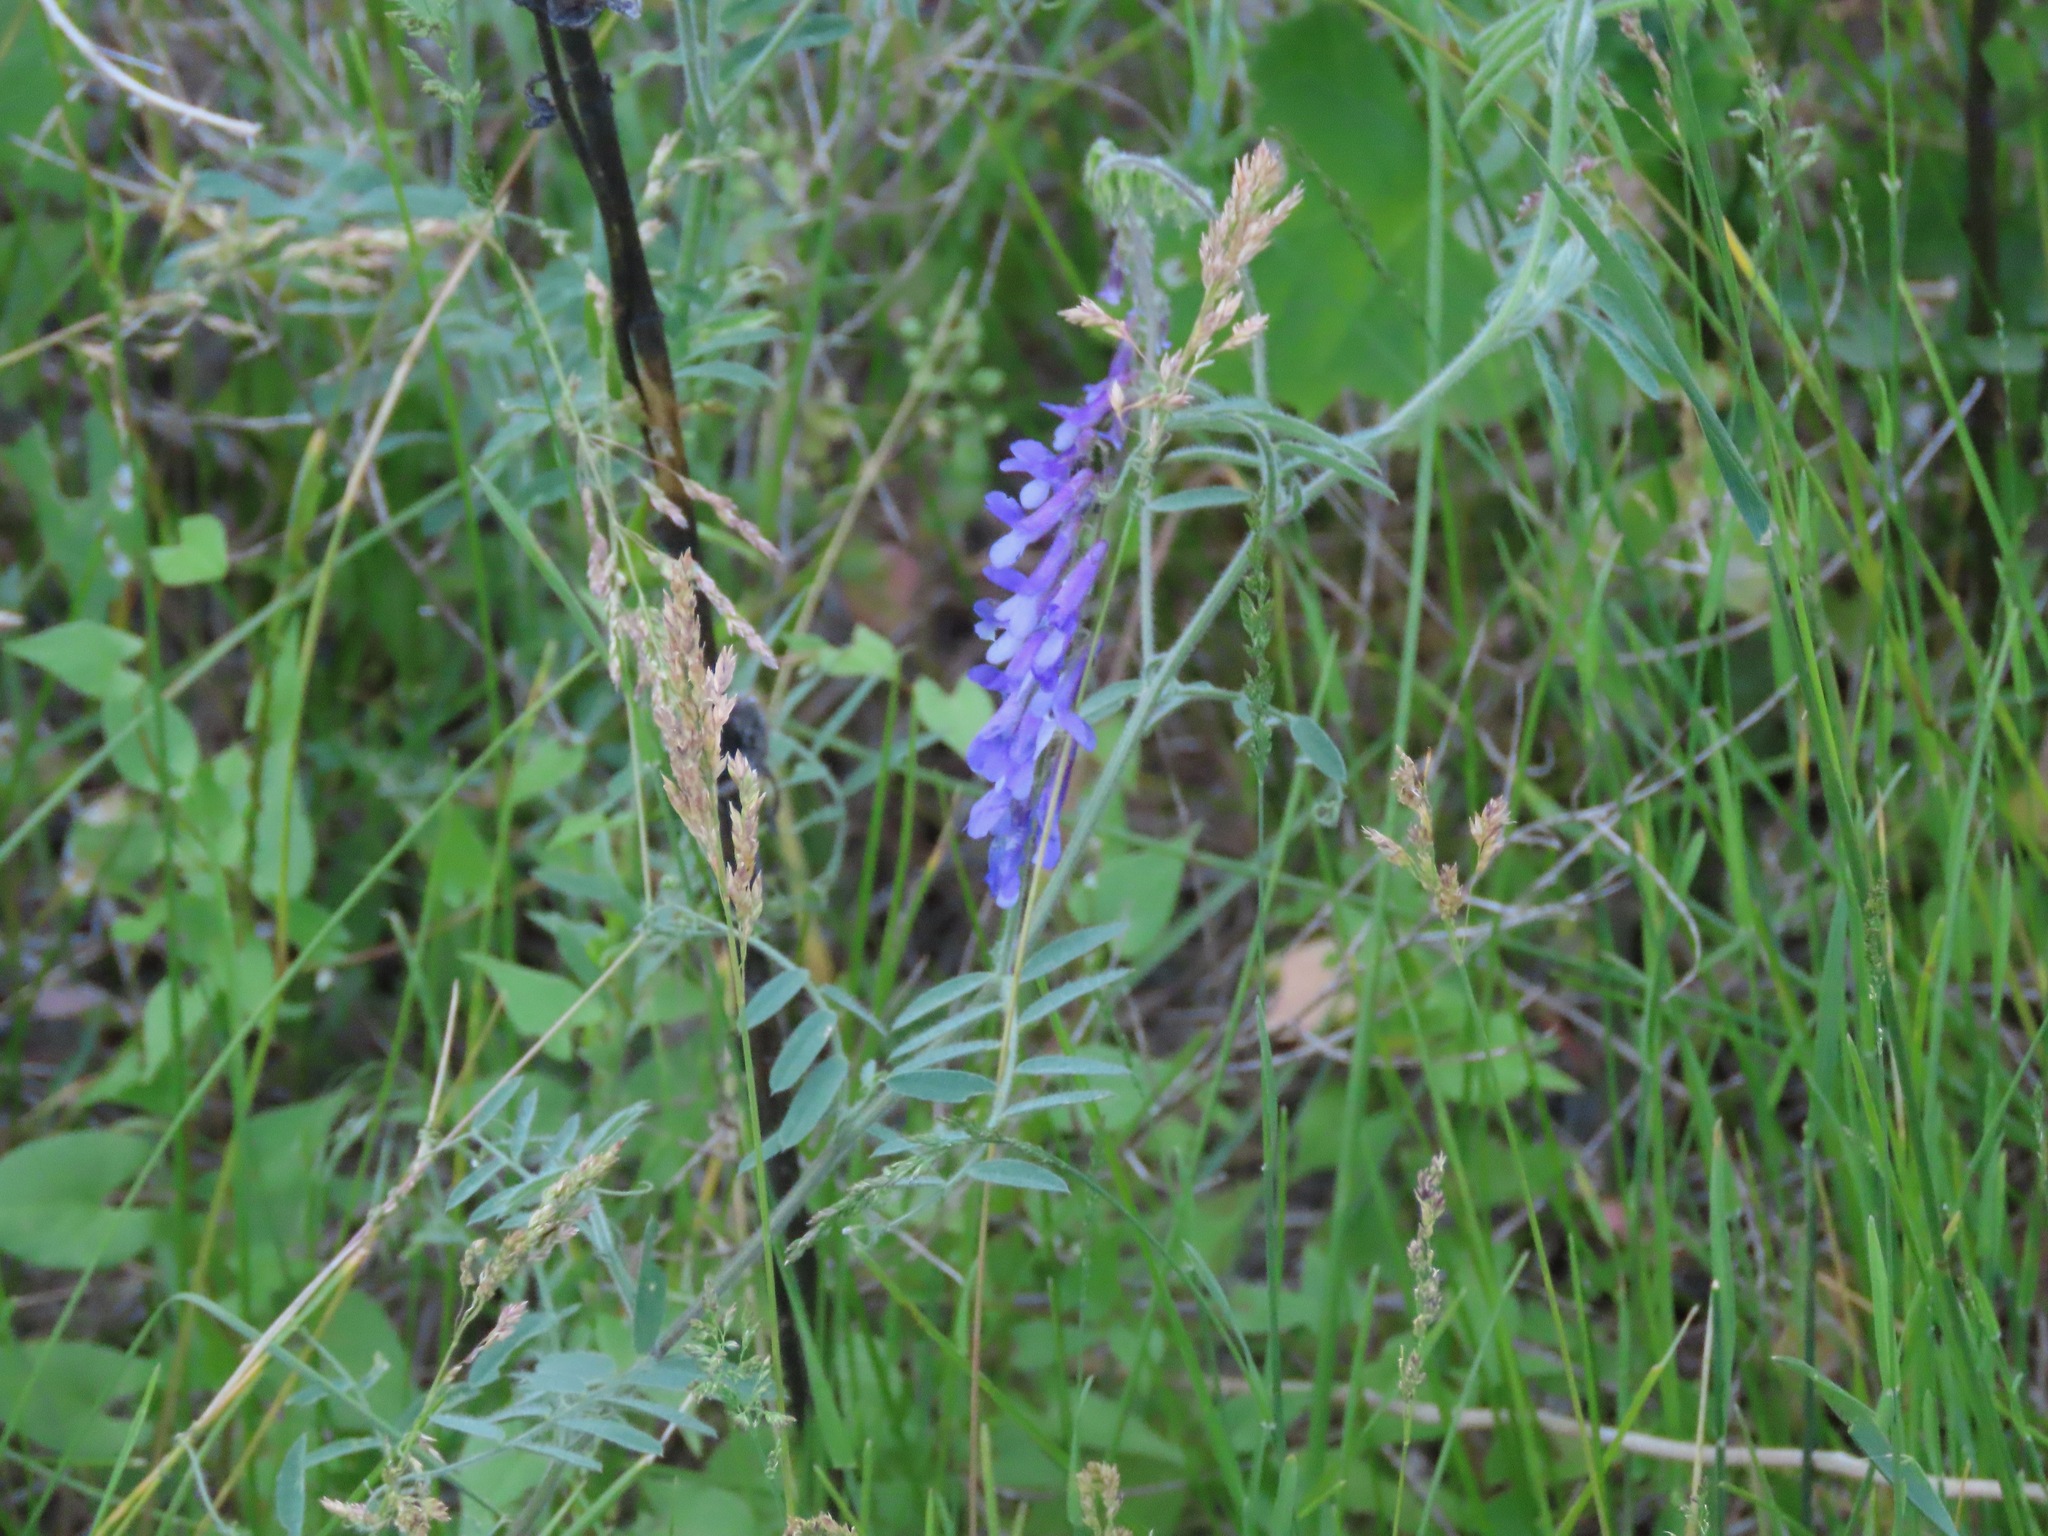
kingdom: Plantae
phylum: Tracheophyta
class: Magnoliopsida
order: Fabales
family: Fabaceae
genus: Vicia
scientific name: Vicia villosa
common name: Fodder vetch
